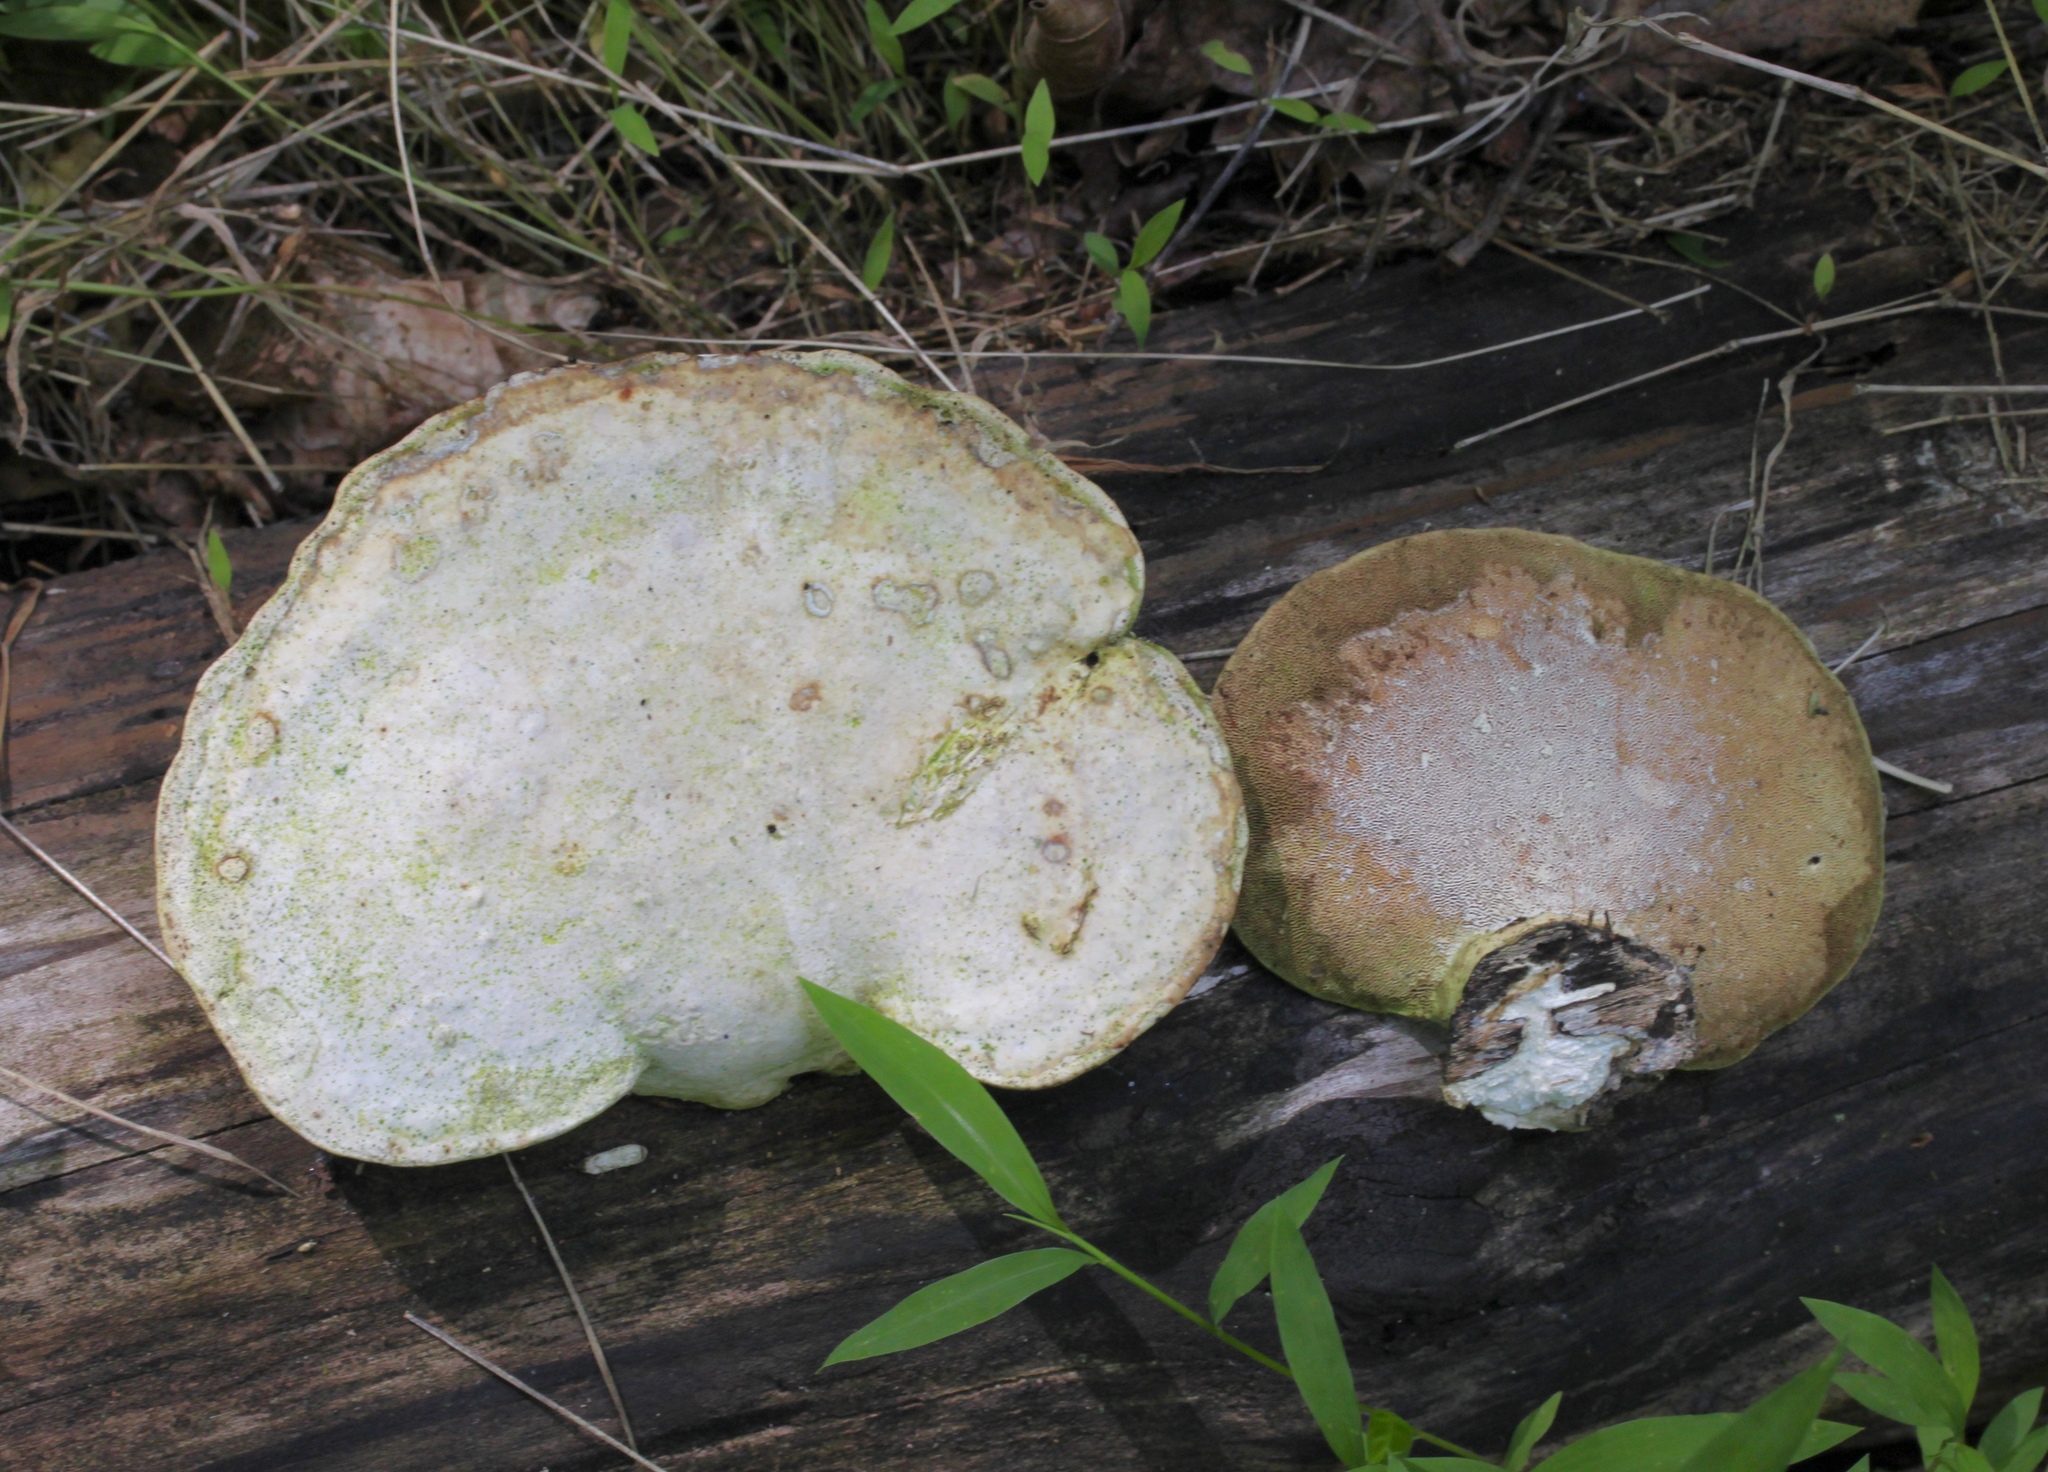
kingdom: Fungi
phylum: Basidiomycota
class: Agaricomycetes
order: Polyporales
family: Polyporaceae
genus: Trametes
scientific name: Trametes gibbosa
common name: Lumpy bracket
